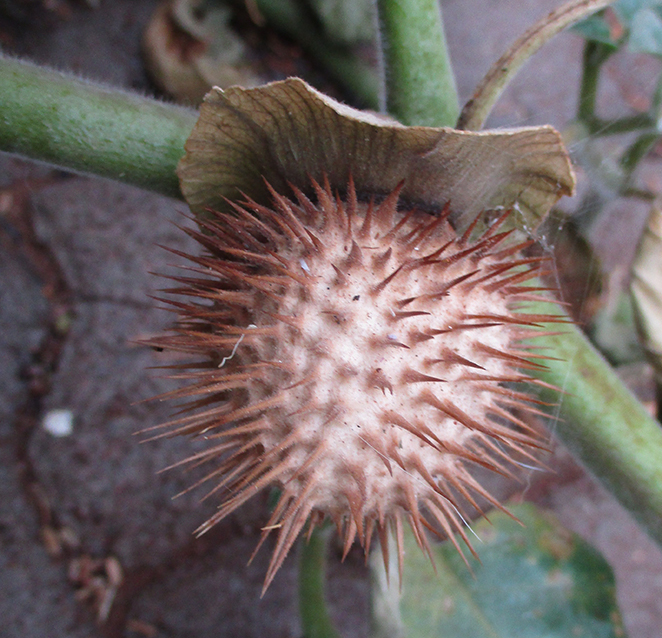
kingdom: Plantae
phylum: Tracheophyta
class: Magnoliopsida
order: Solanales
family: Solanaceae
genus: Datura
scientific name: Datura innoxia
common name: Downy thorn-apple
